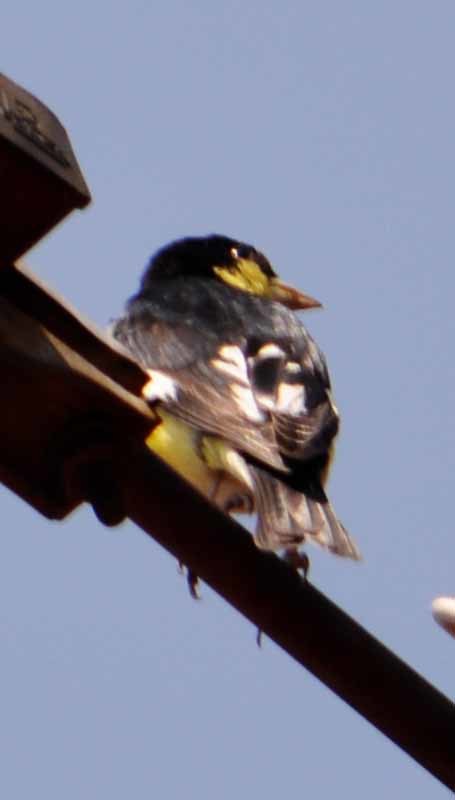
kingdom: Animalia
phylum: Chordata
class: Aves
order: Passeriformes
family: Fringillidae
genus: Spinus
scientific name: Spinus psaltria
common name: Lesser goldfinch
